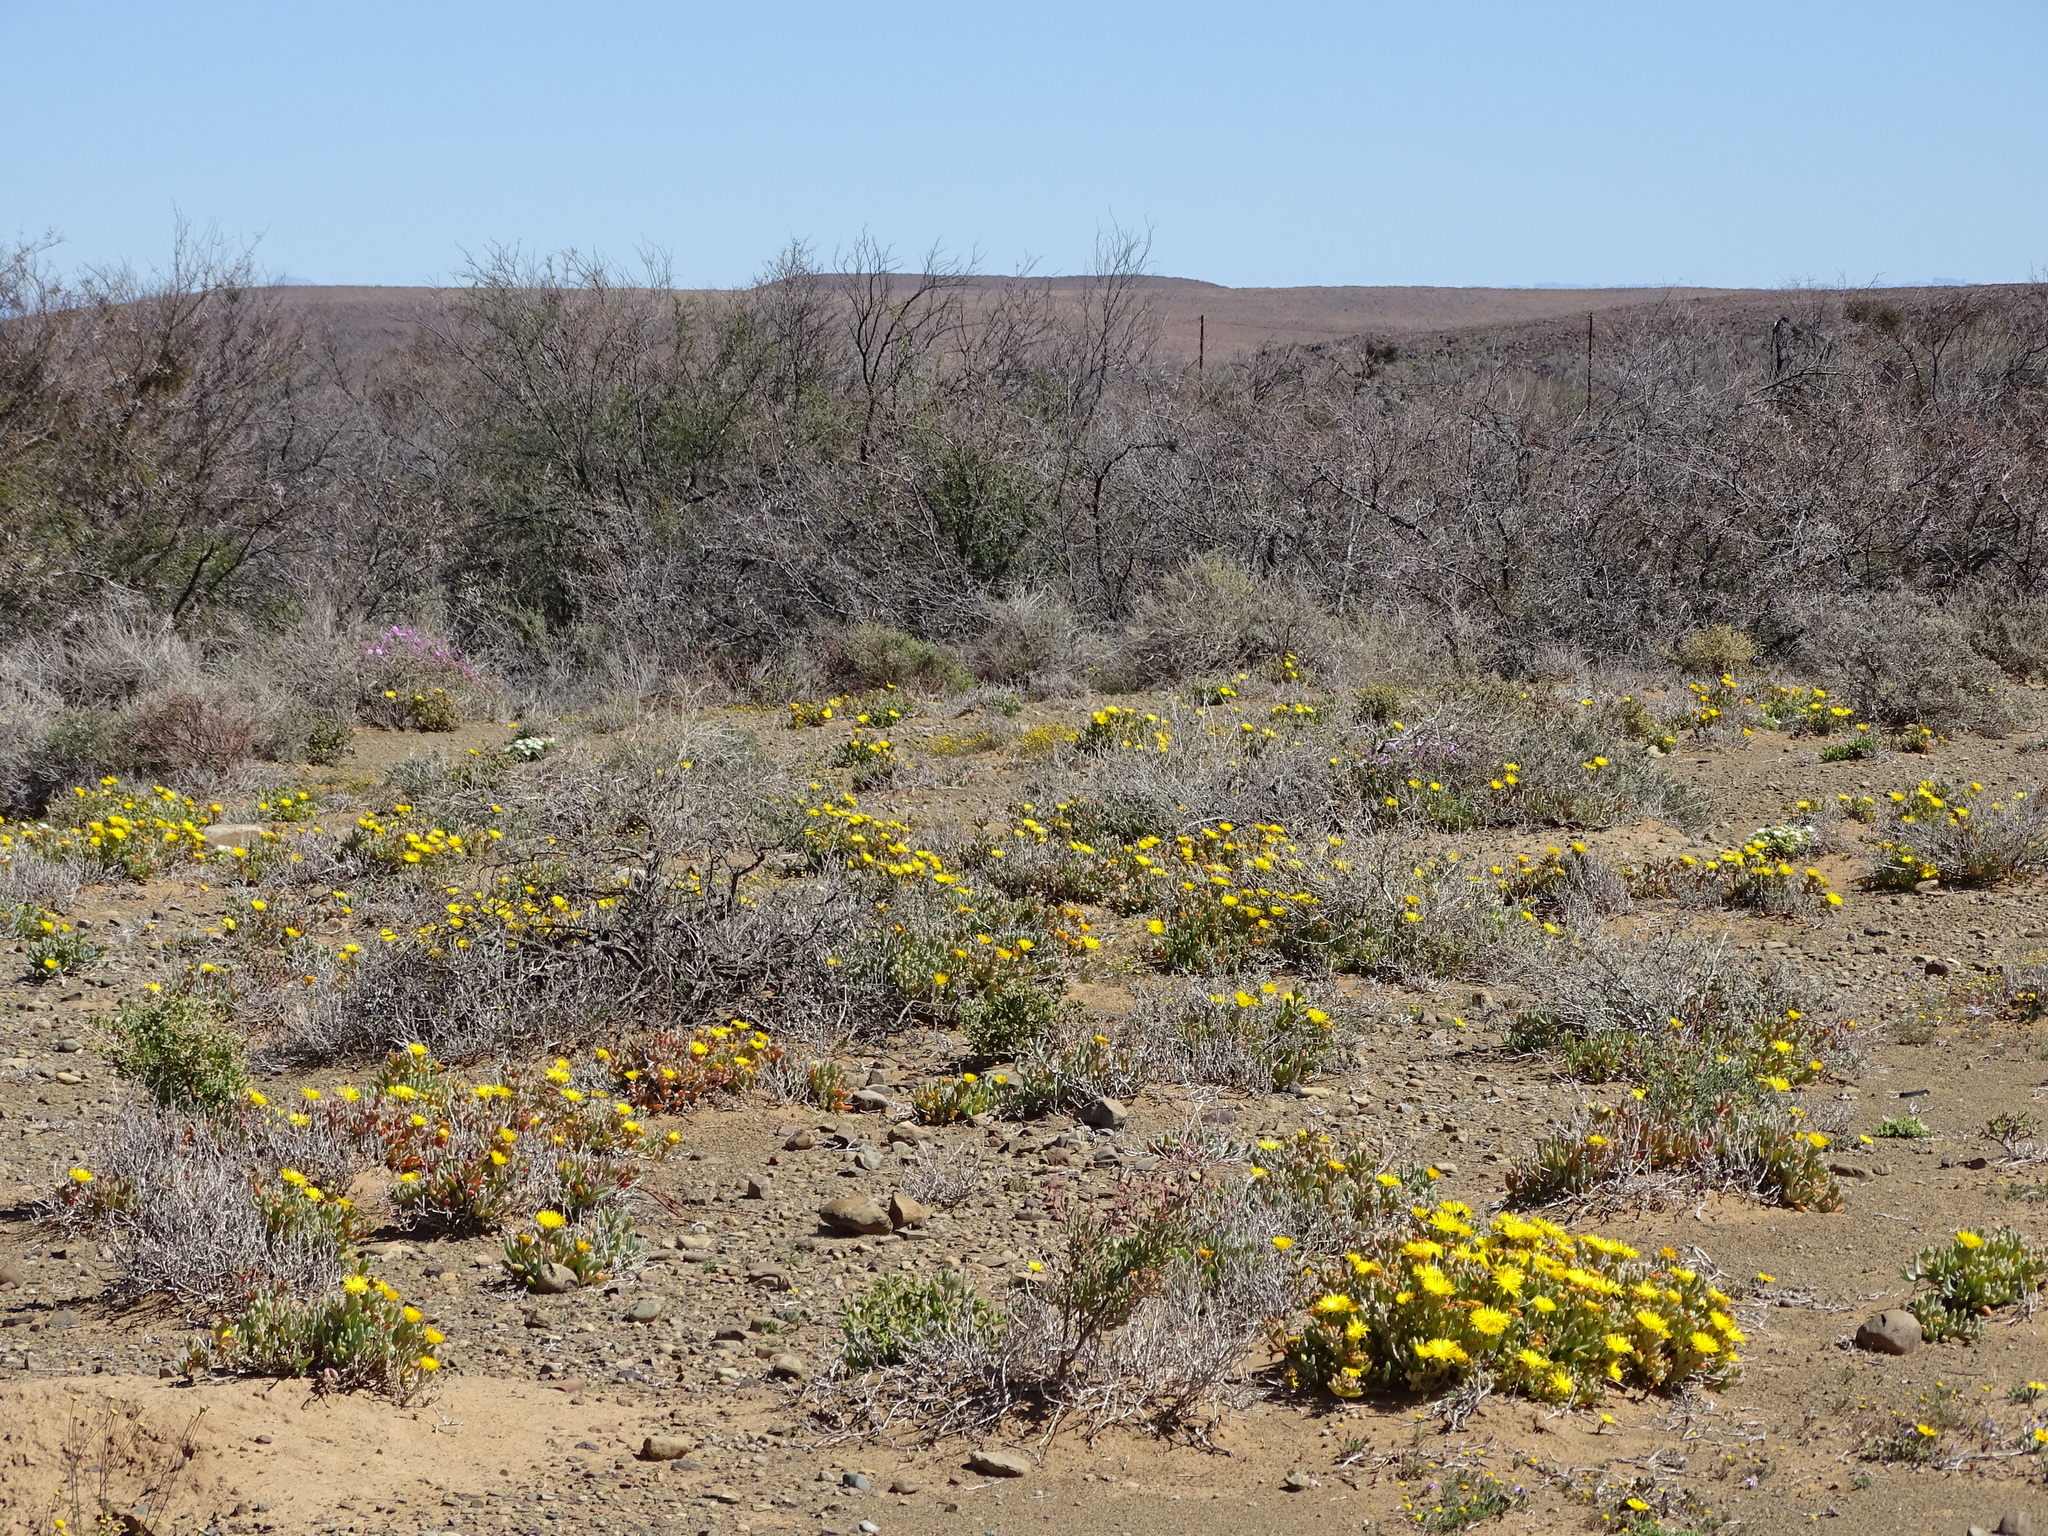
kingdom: Plantae
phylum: Tracheophyta
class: Magnoliopsida
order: Caryophyllales
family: Aizoaceae
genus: Malephora
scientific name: Malephora crassa
